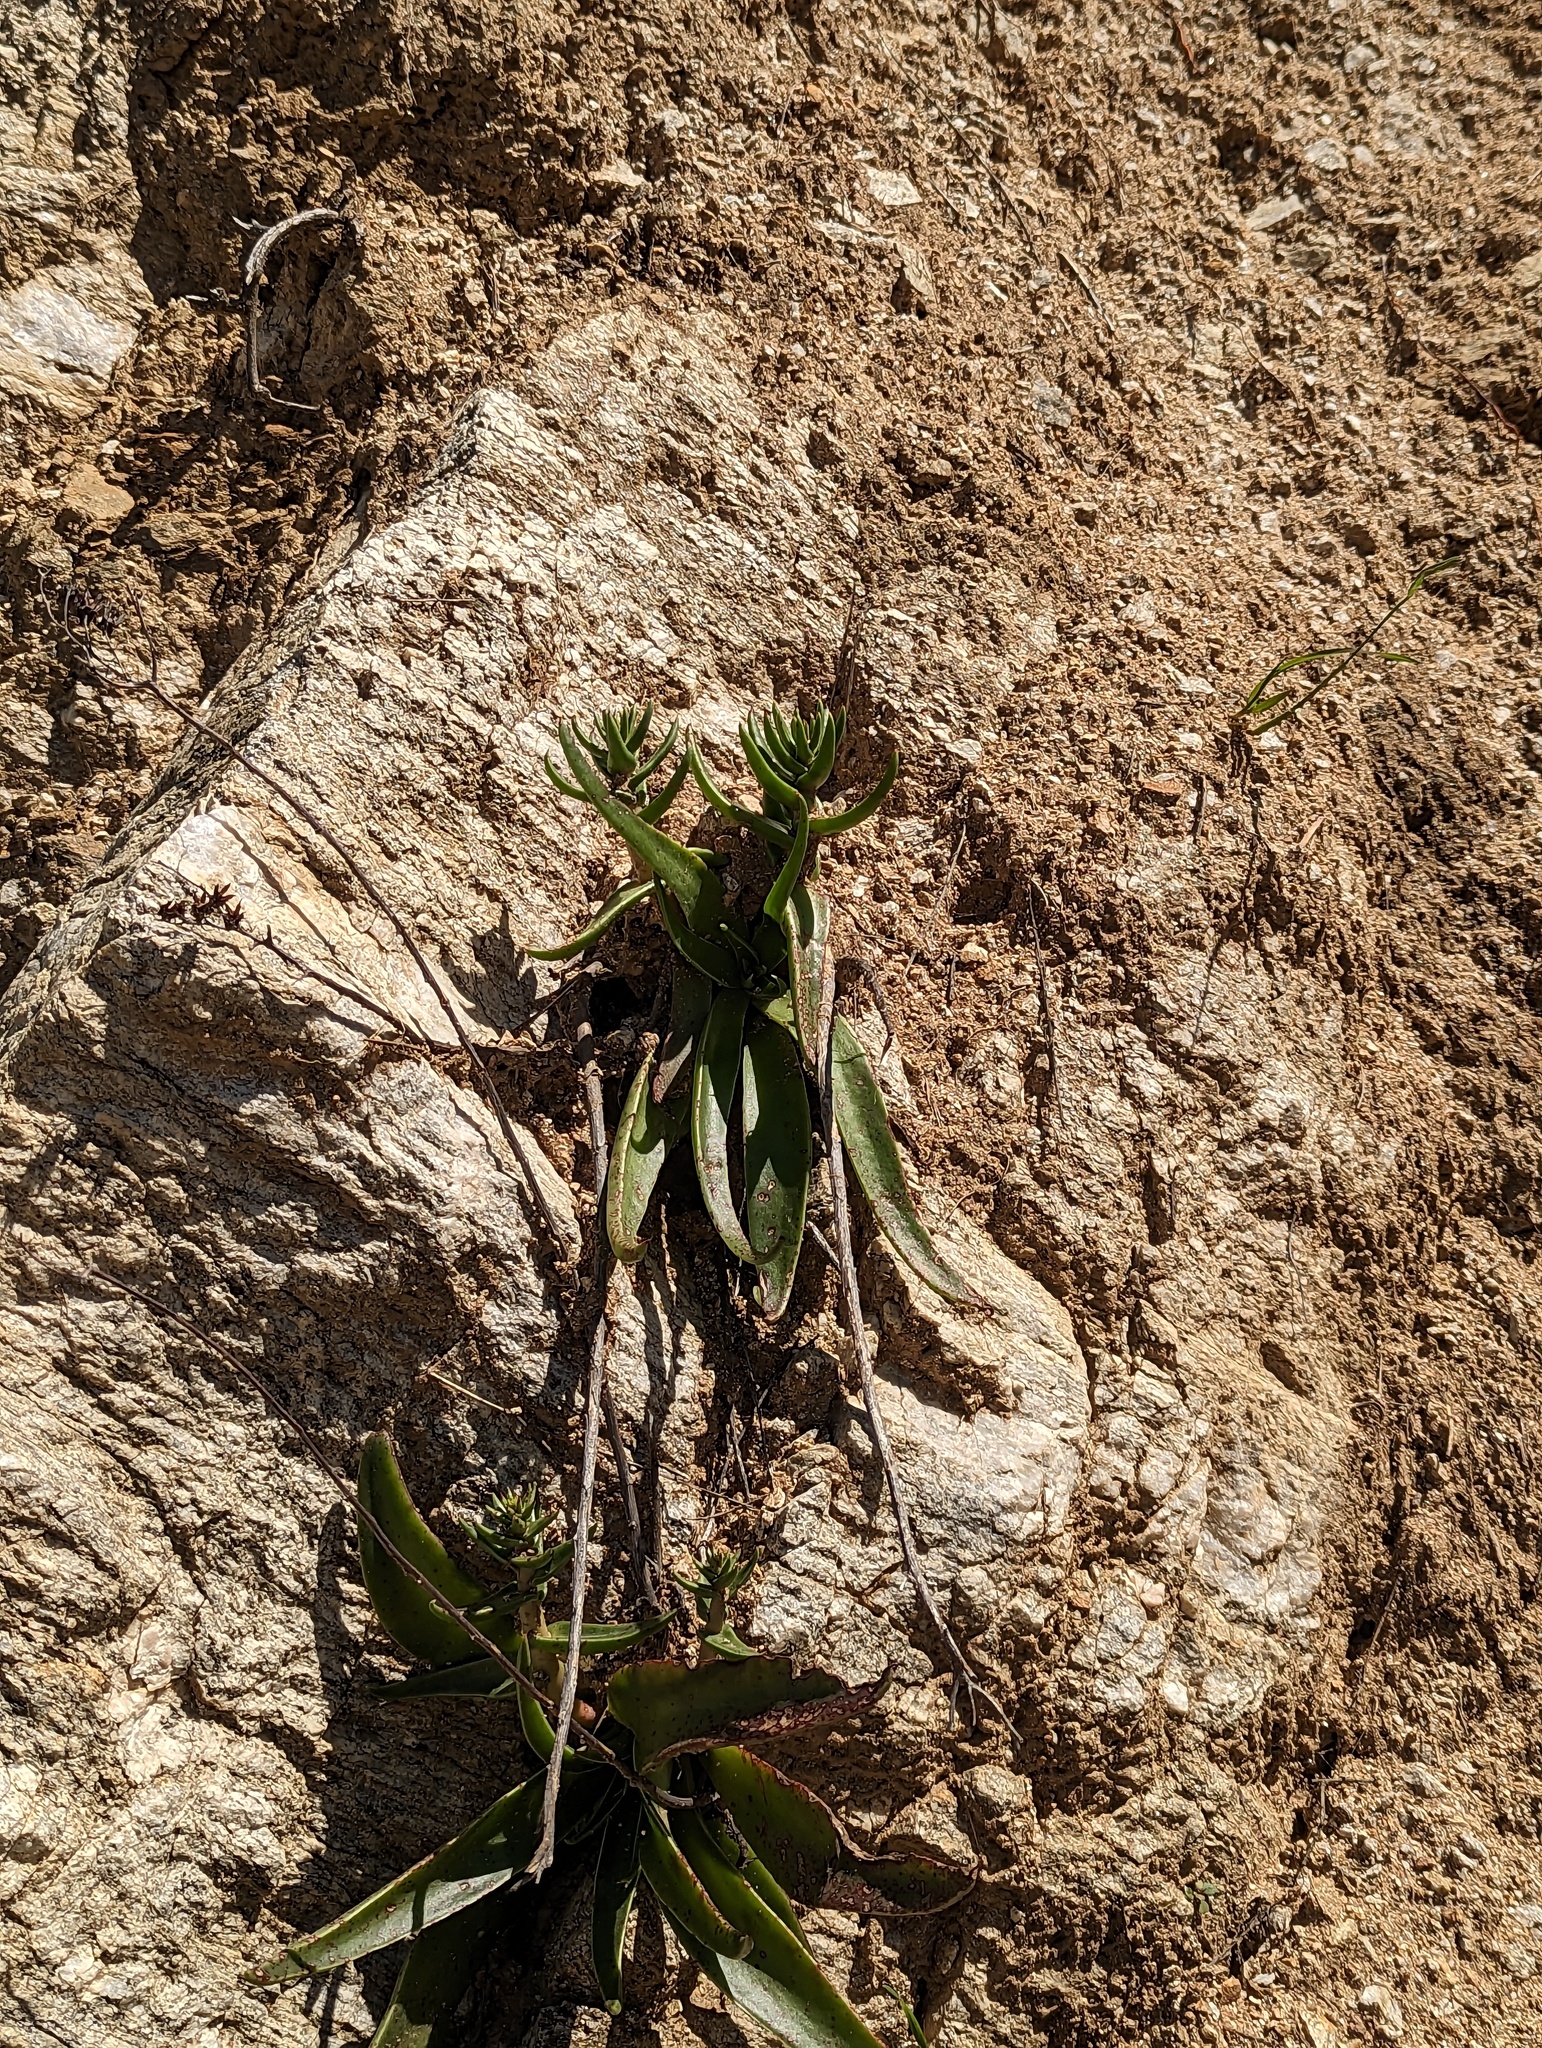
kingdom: Plantae
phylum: Tracheophyta
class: Magnoliopsida
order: Saxifragales
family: Crassulaceae
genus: Dudleya
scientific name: Dudleya lanceolata
